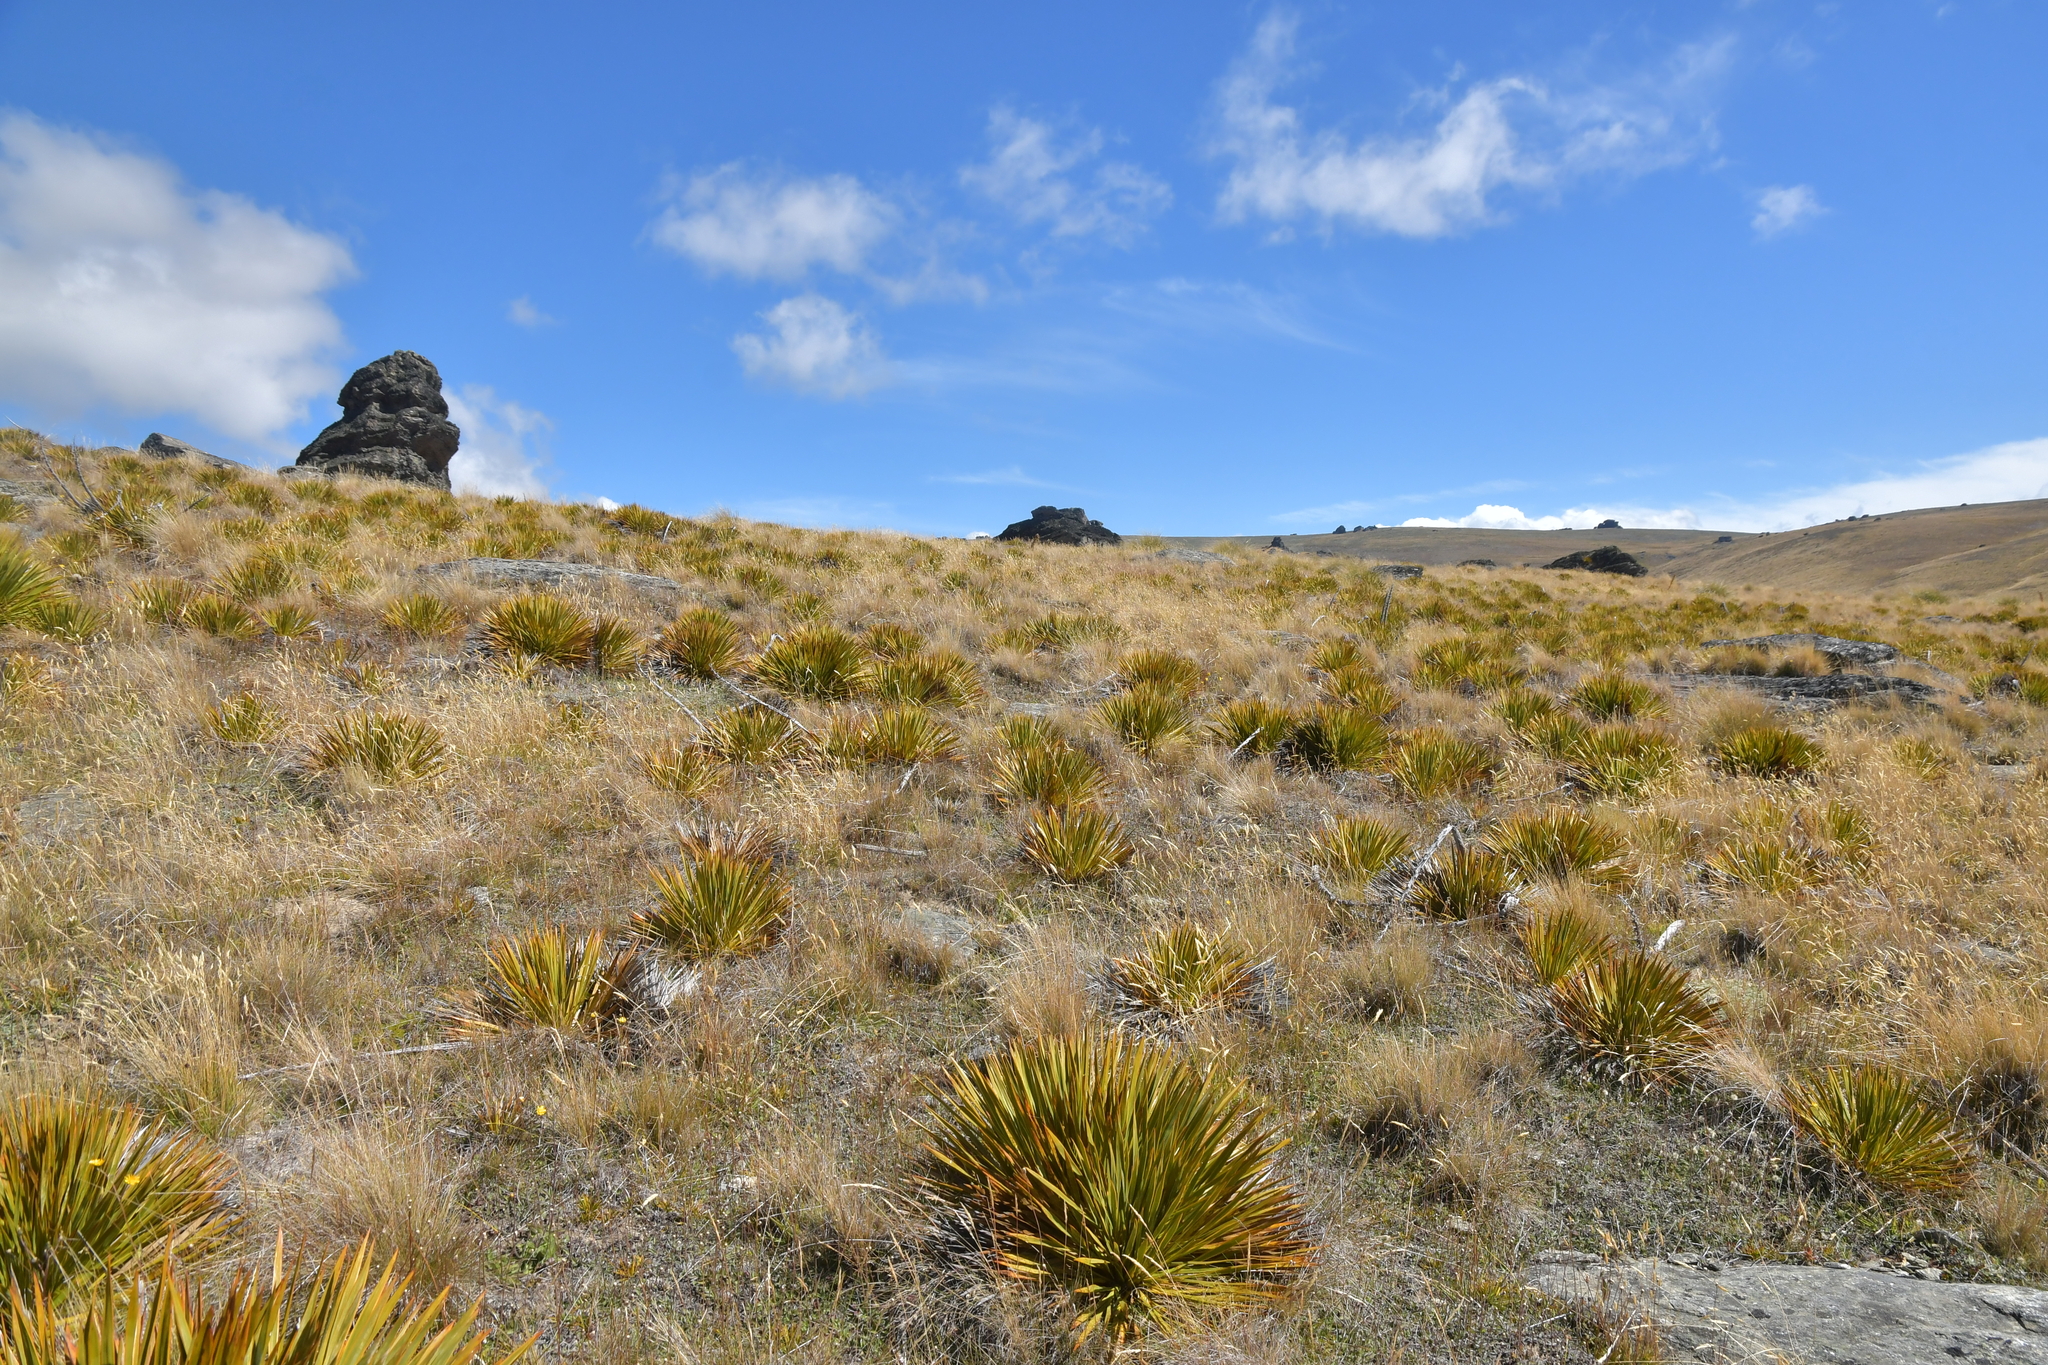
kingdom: Plantae
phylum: Tracheophyta
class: Magnoliopsida
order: Apiales
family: Apiaceae
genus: Aciphylla
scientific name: Aciphylla aurea
